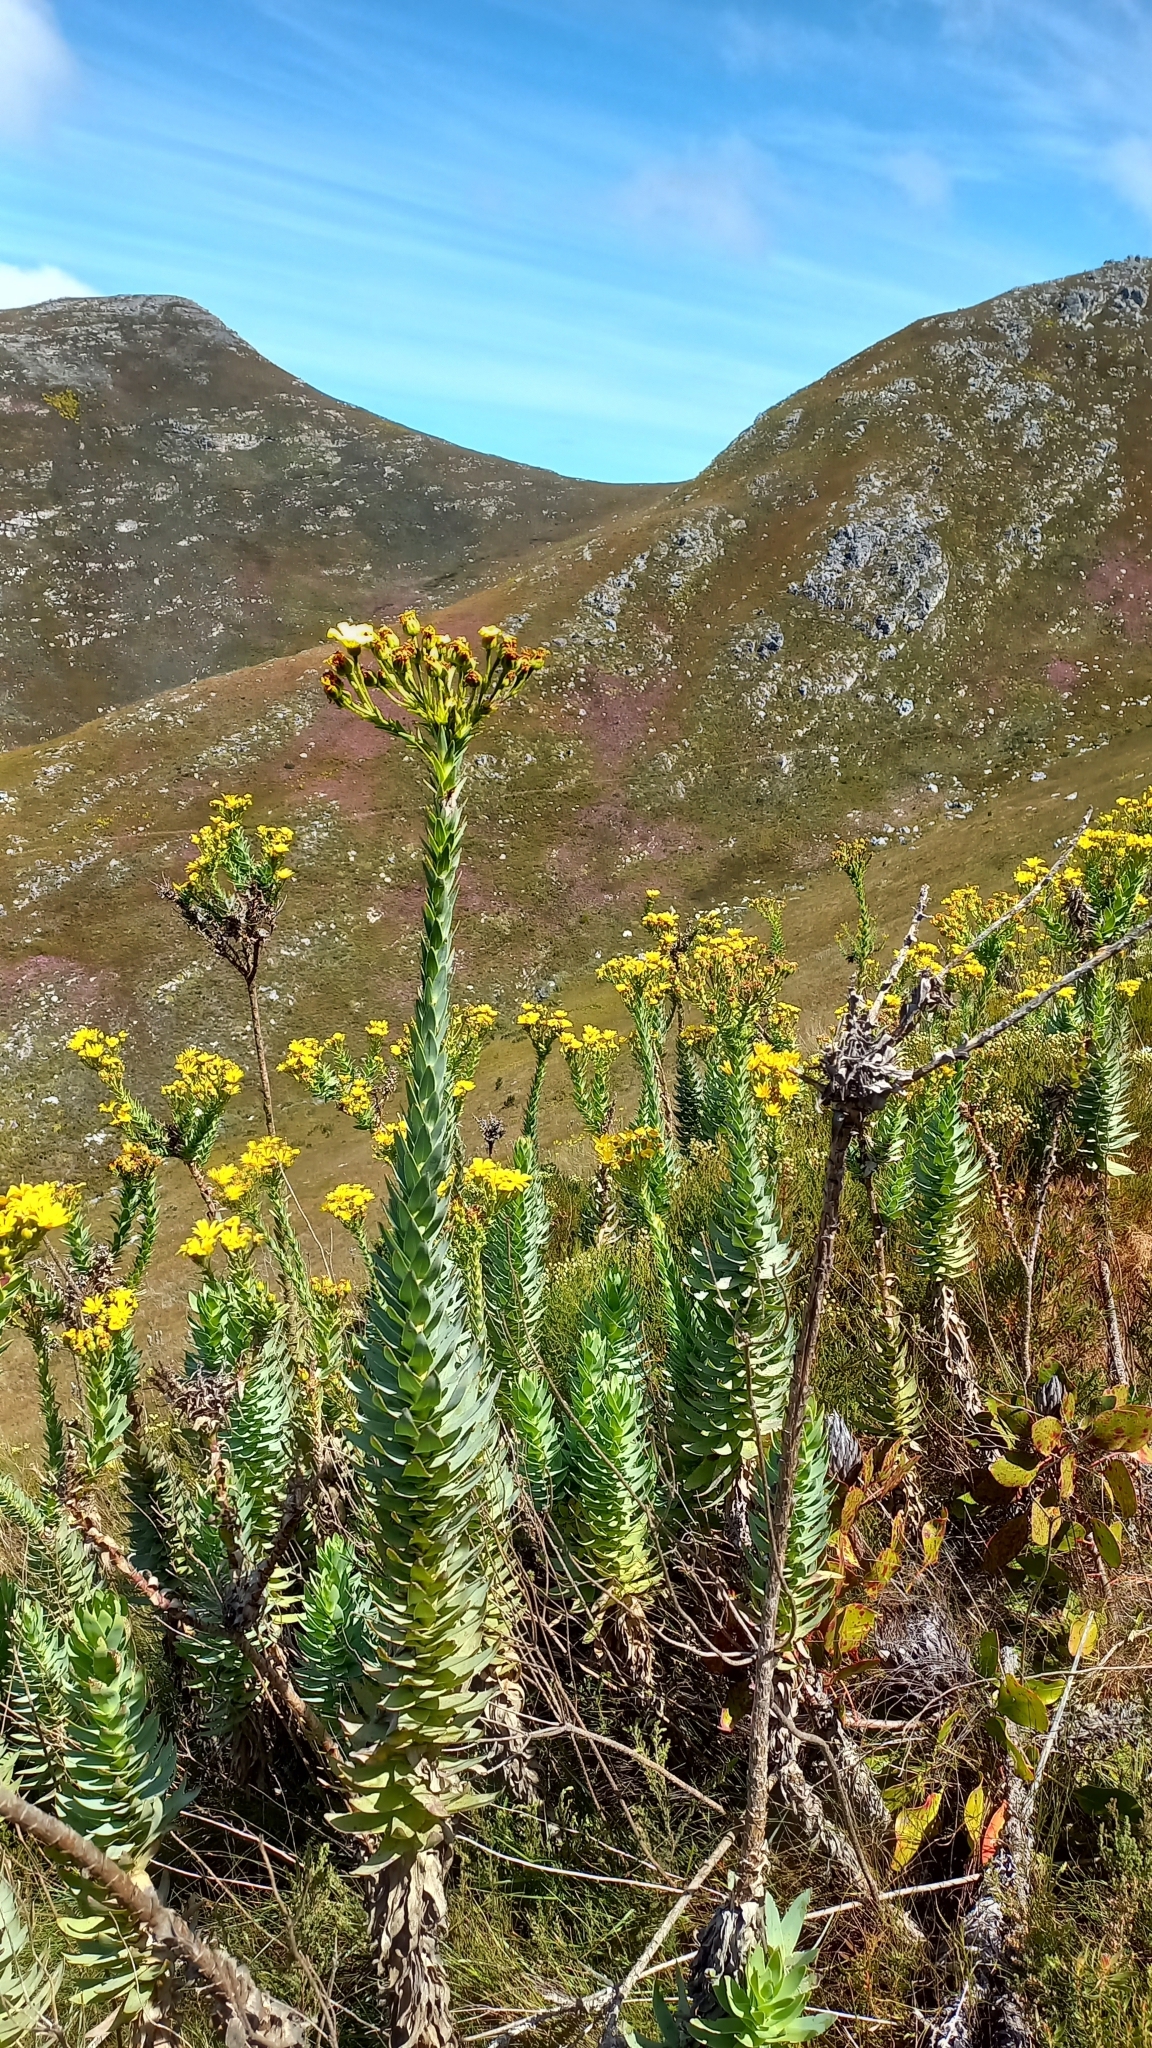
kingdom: Plantae
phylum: Tracheophyta
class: Magnoliopsida
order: Asterales
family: Asteraceae
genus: Osteospermum
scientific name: Osteospermum corymbosum
